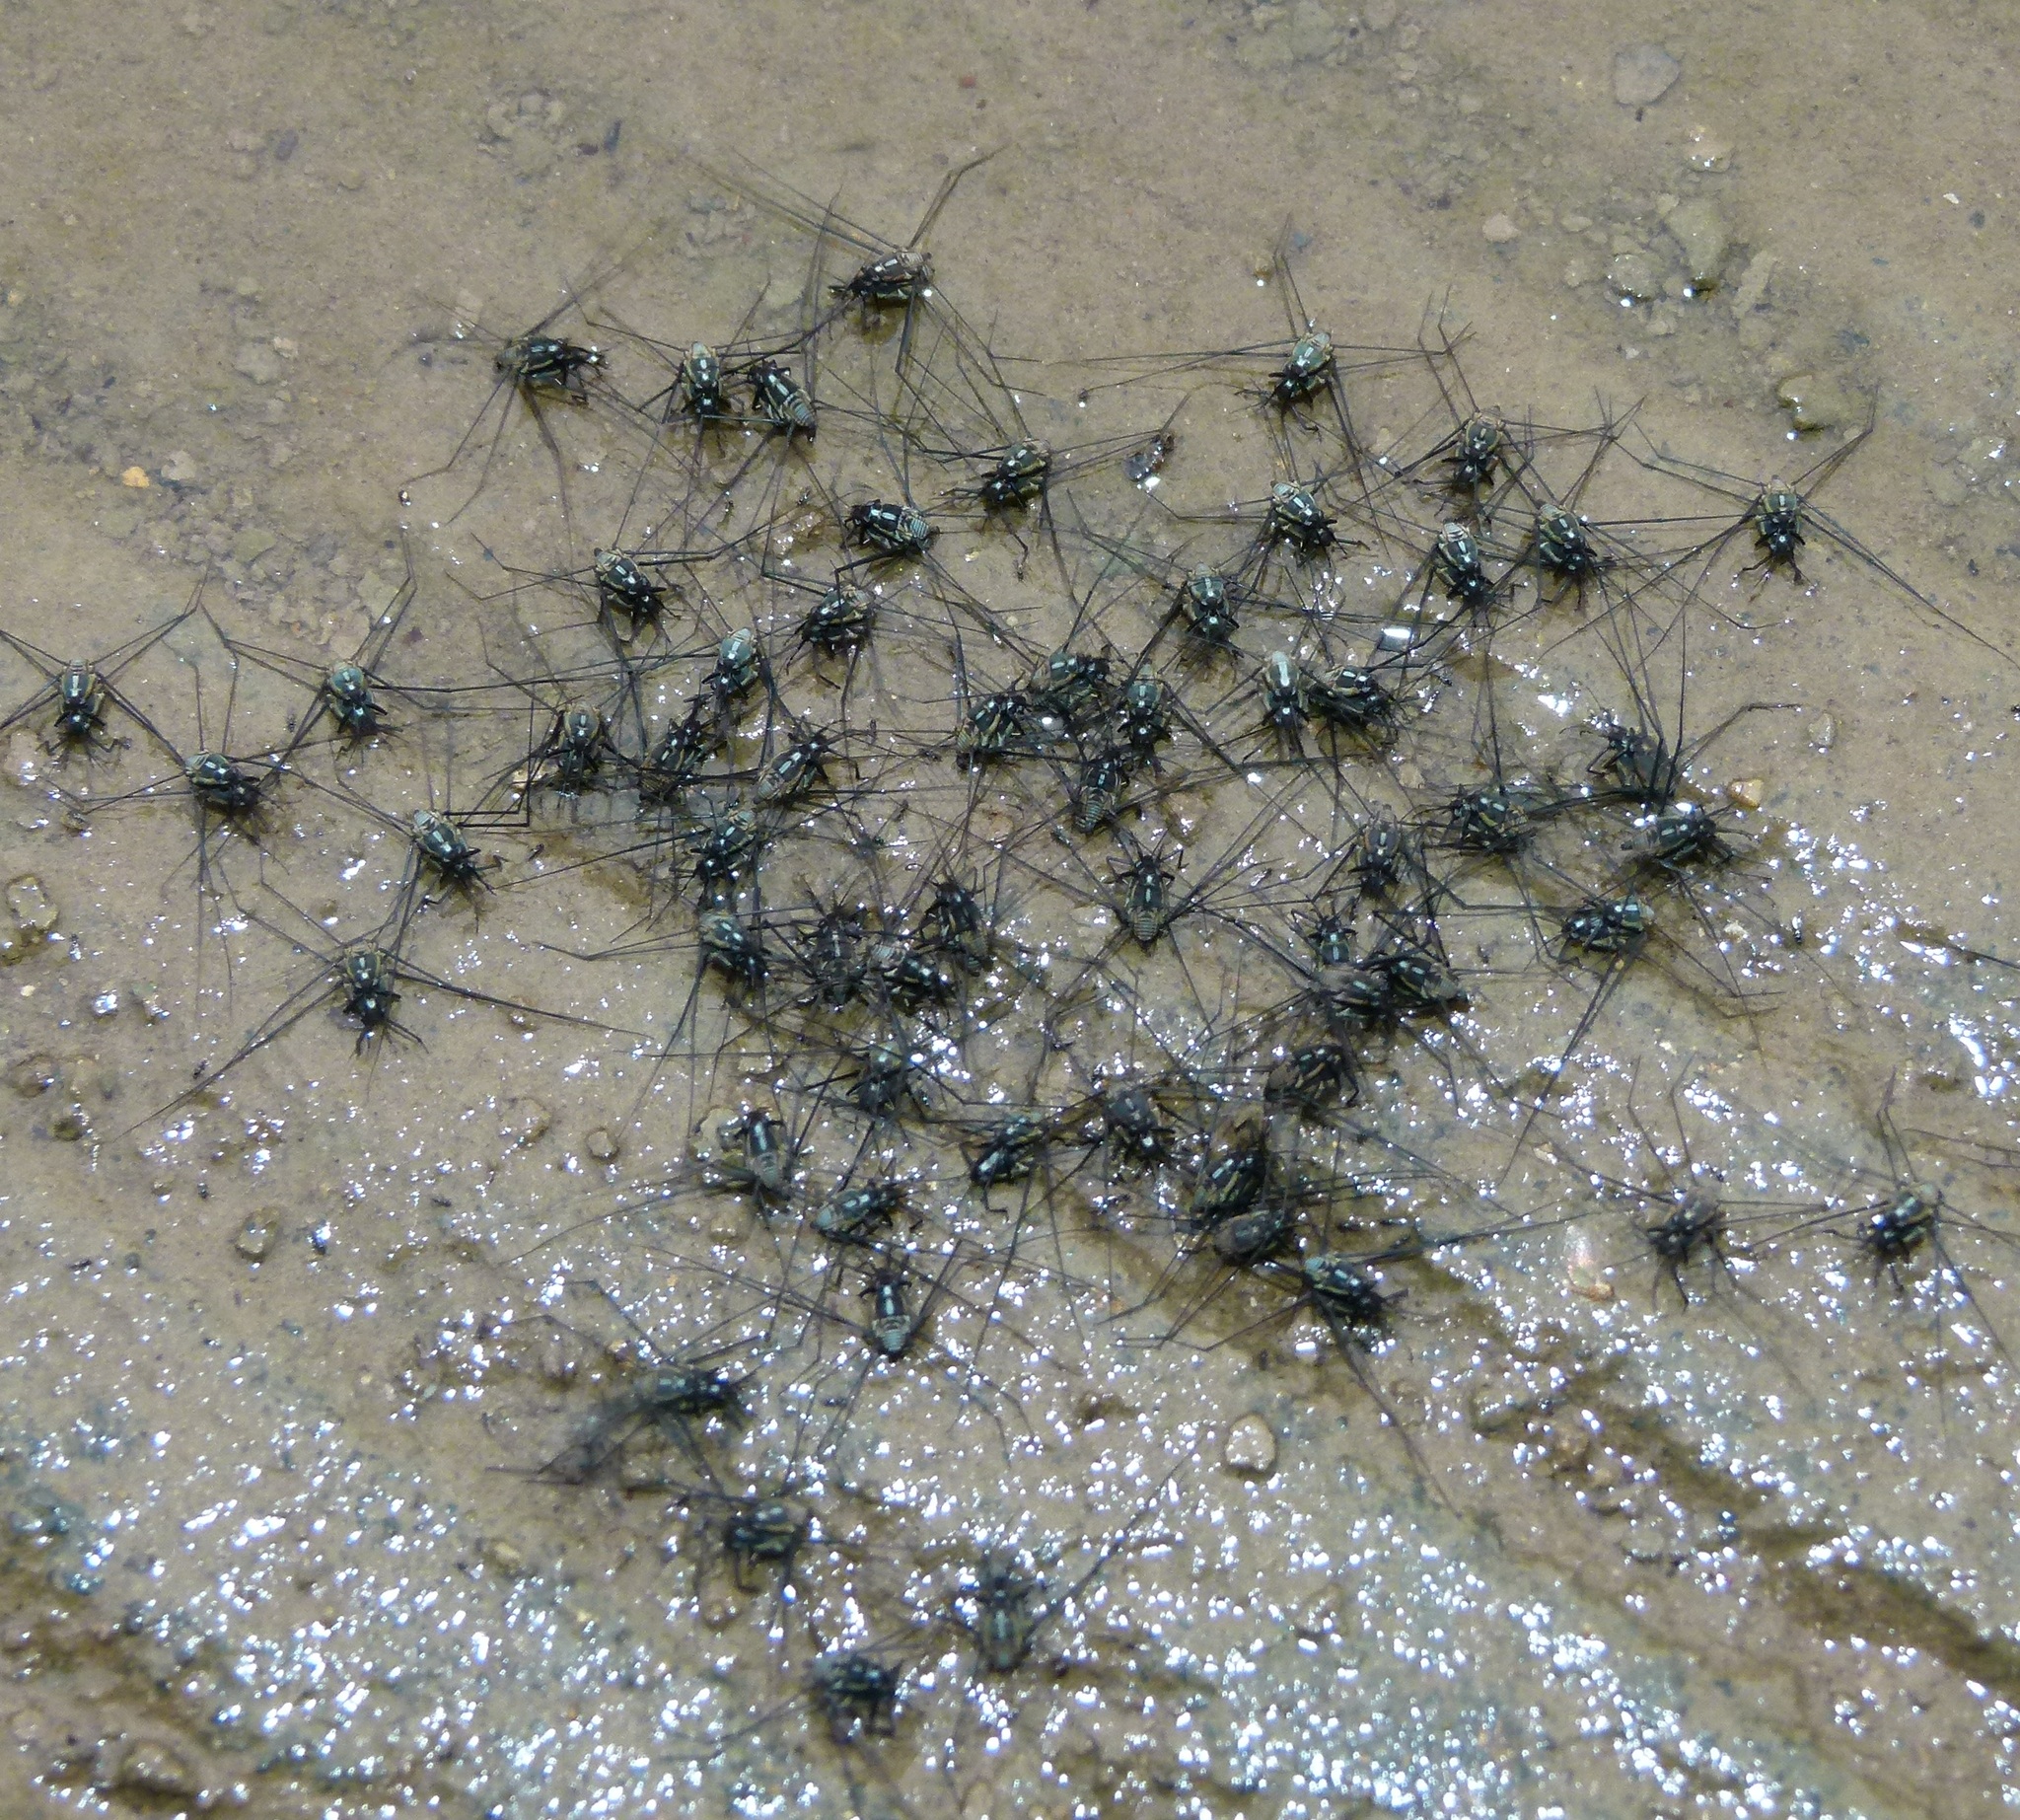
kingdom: Animalia
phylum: Arthropoda
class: Insecta
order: Hemiptera
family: Gerridae
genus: Metrobates
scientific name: Metrobates hesperius
